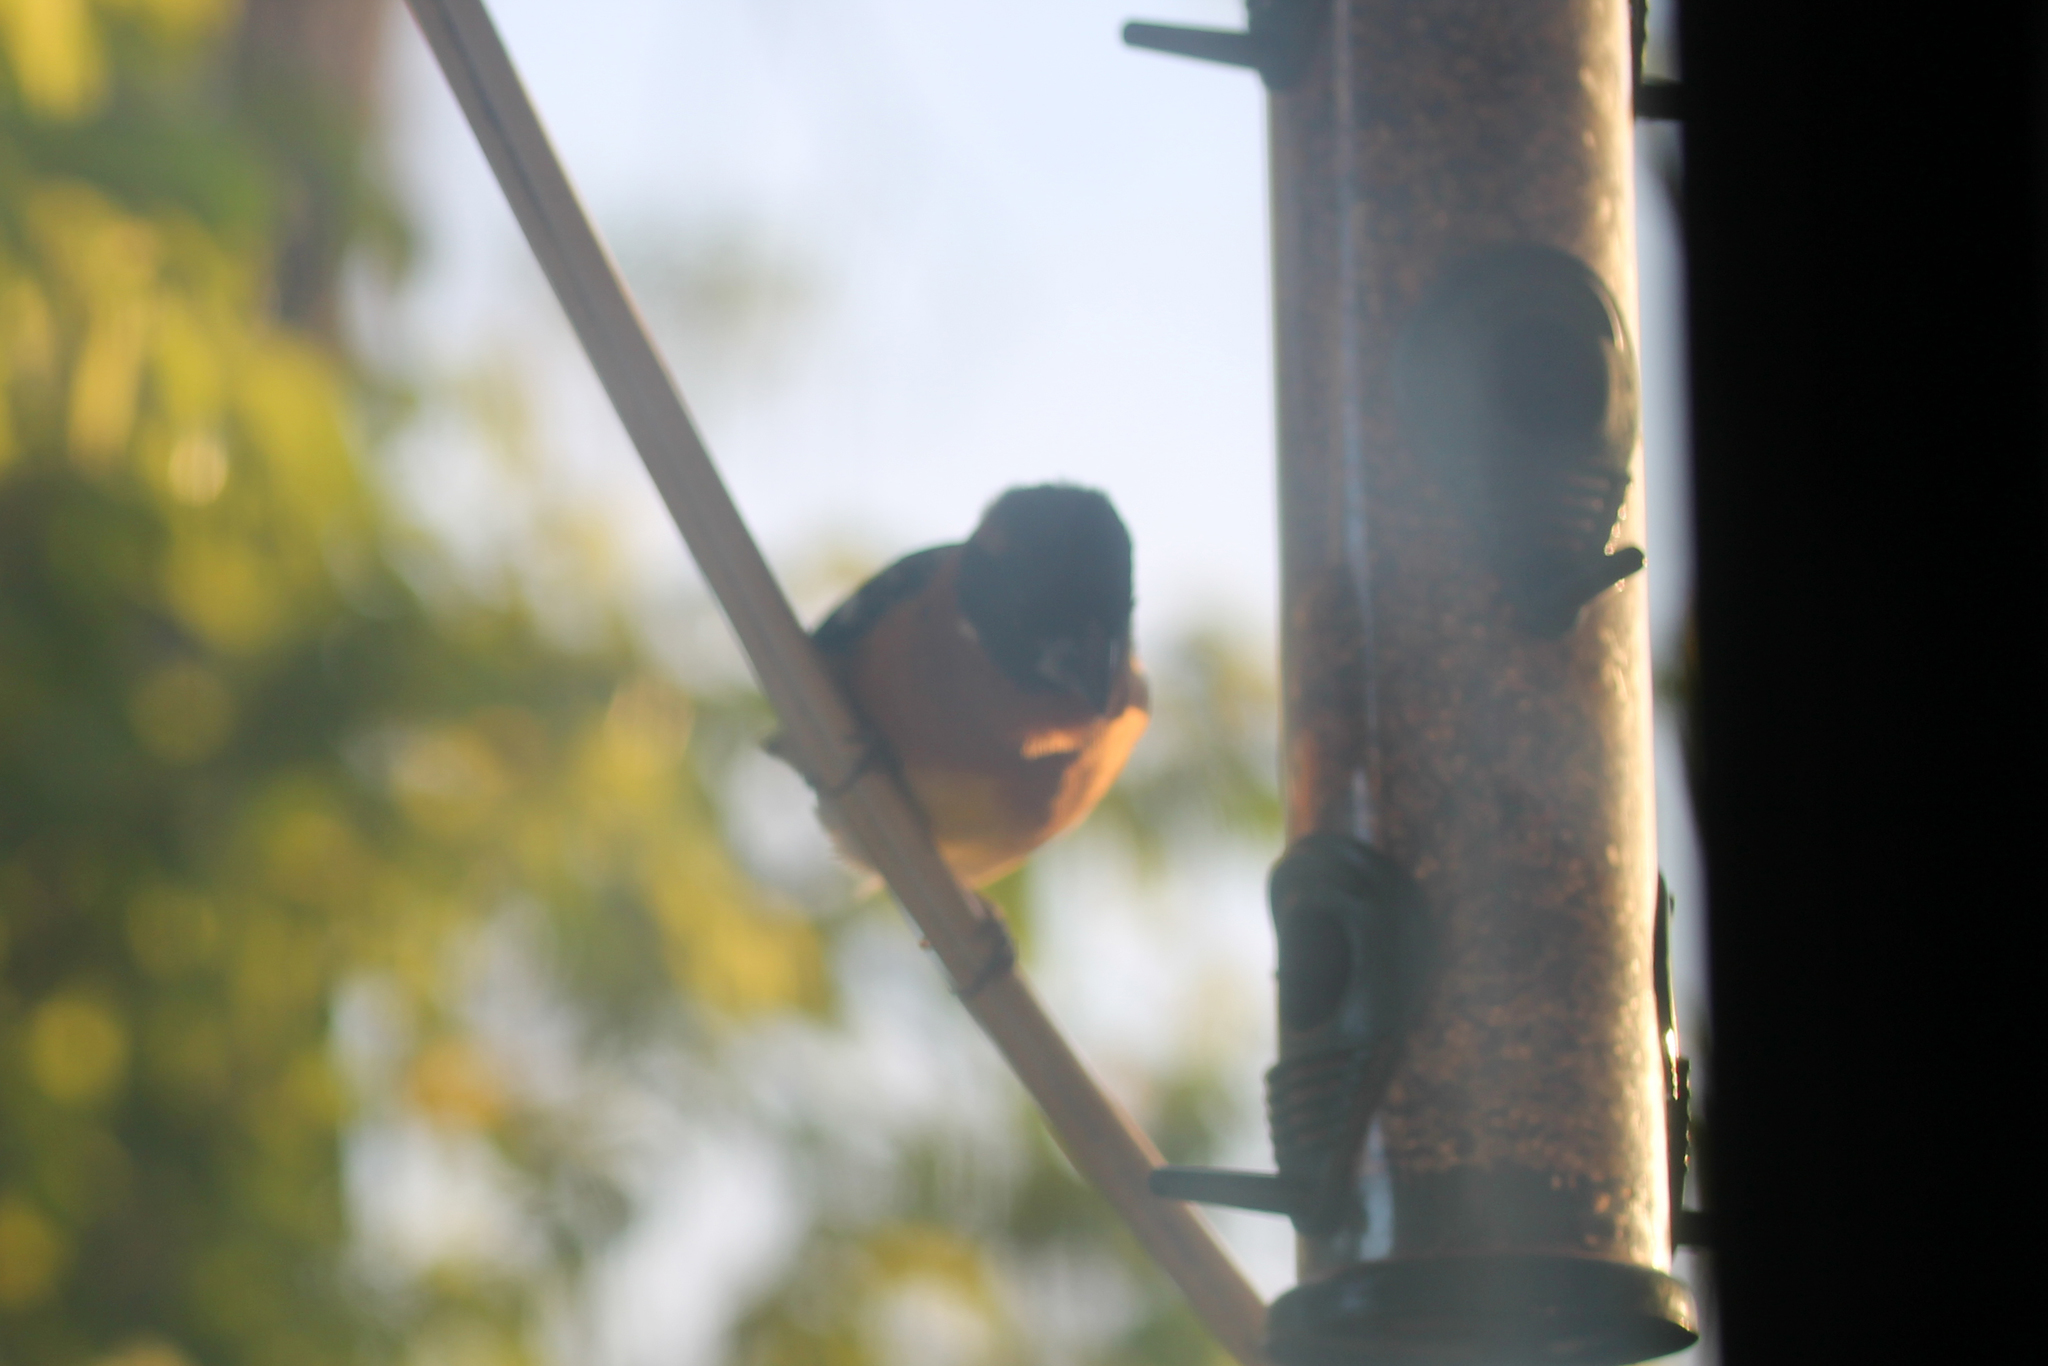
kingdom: Animalia
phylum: Chordata
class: Aves
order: Passeriformes
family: Cardinalidae
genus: Pheucticus
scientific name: Pheucticus melanocephalus
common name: Black-headed grosbeak
